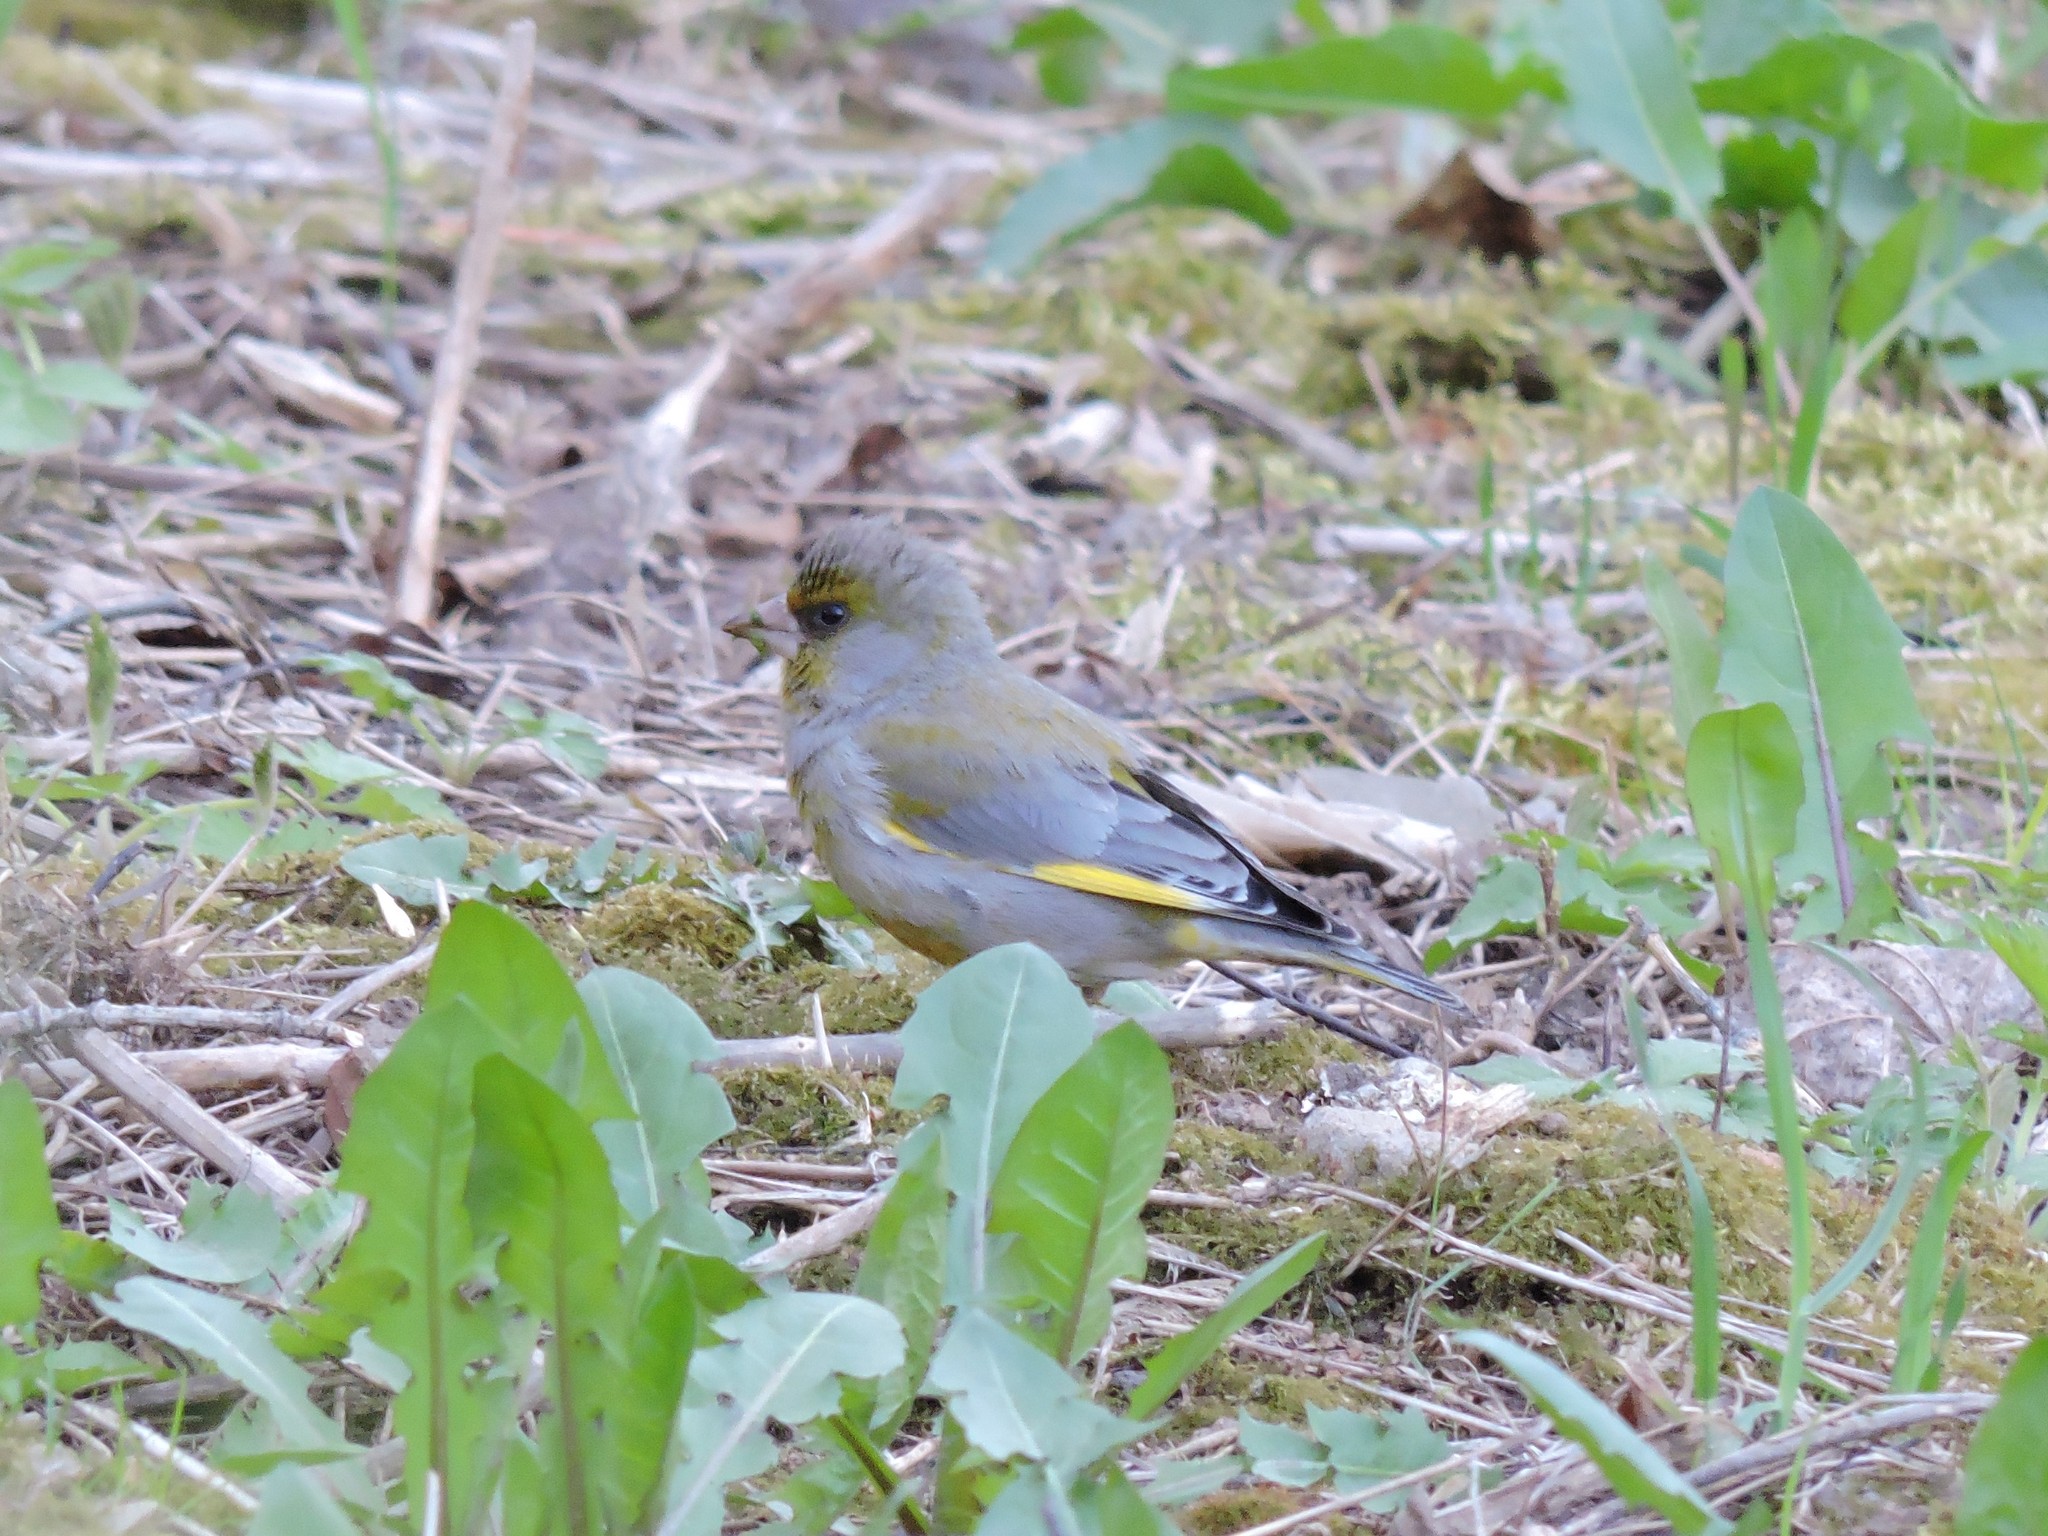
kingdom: Plantae
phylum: Tracheophyta
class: Liliopsida
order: Poales
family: Poaceae
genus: Chloris
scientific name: Chloris chloris
